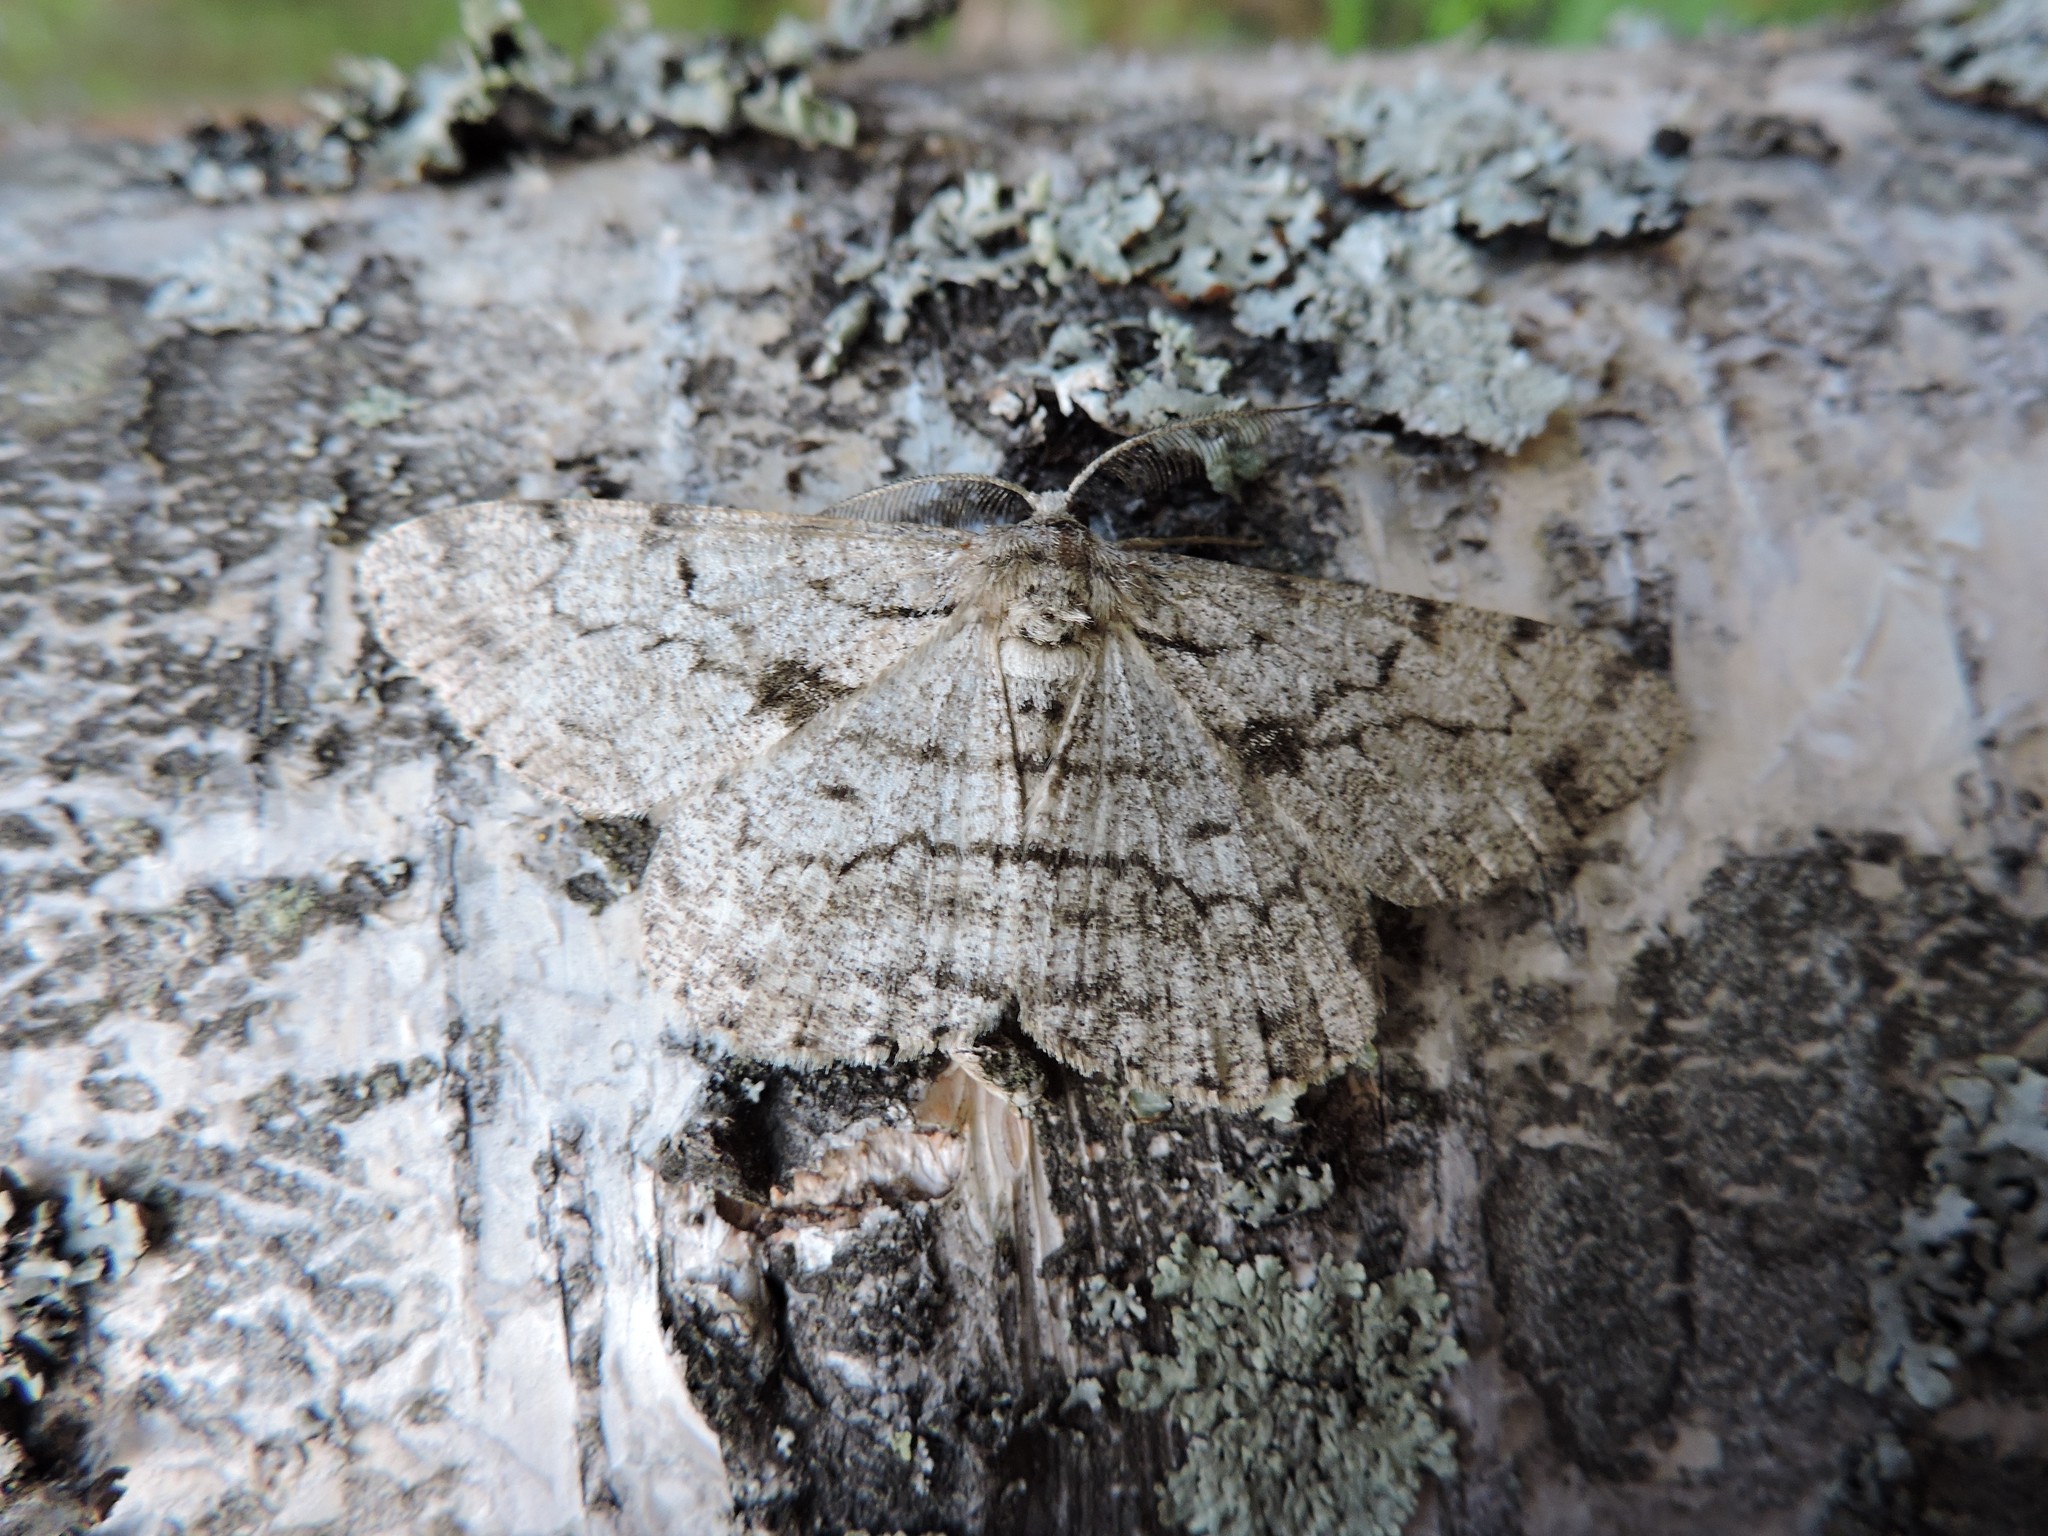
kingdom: Animalia
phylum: Arthropoda
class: Insecta
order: Lepidoptera
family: Geometridae
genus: Hypomecis
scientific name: Hypomecis roboraria
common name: Great oak beauty
